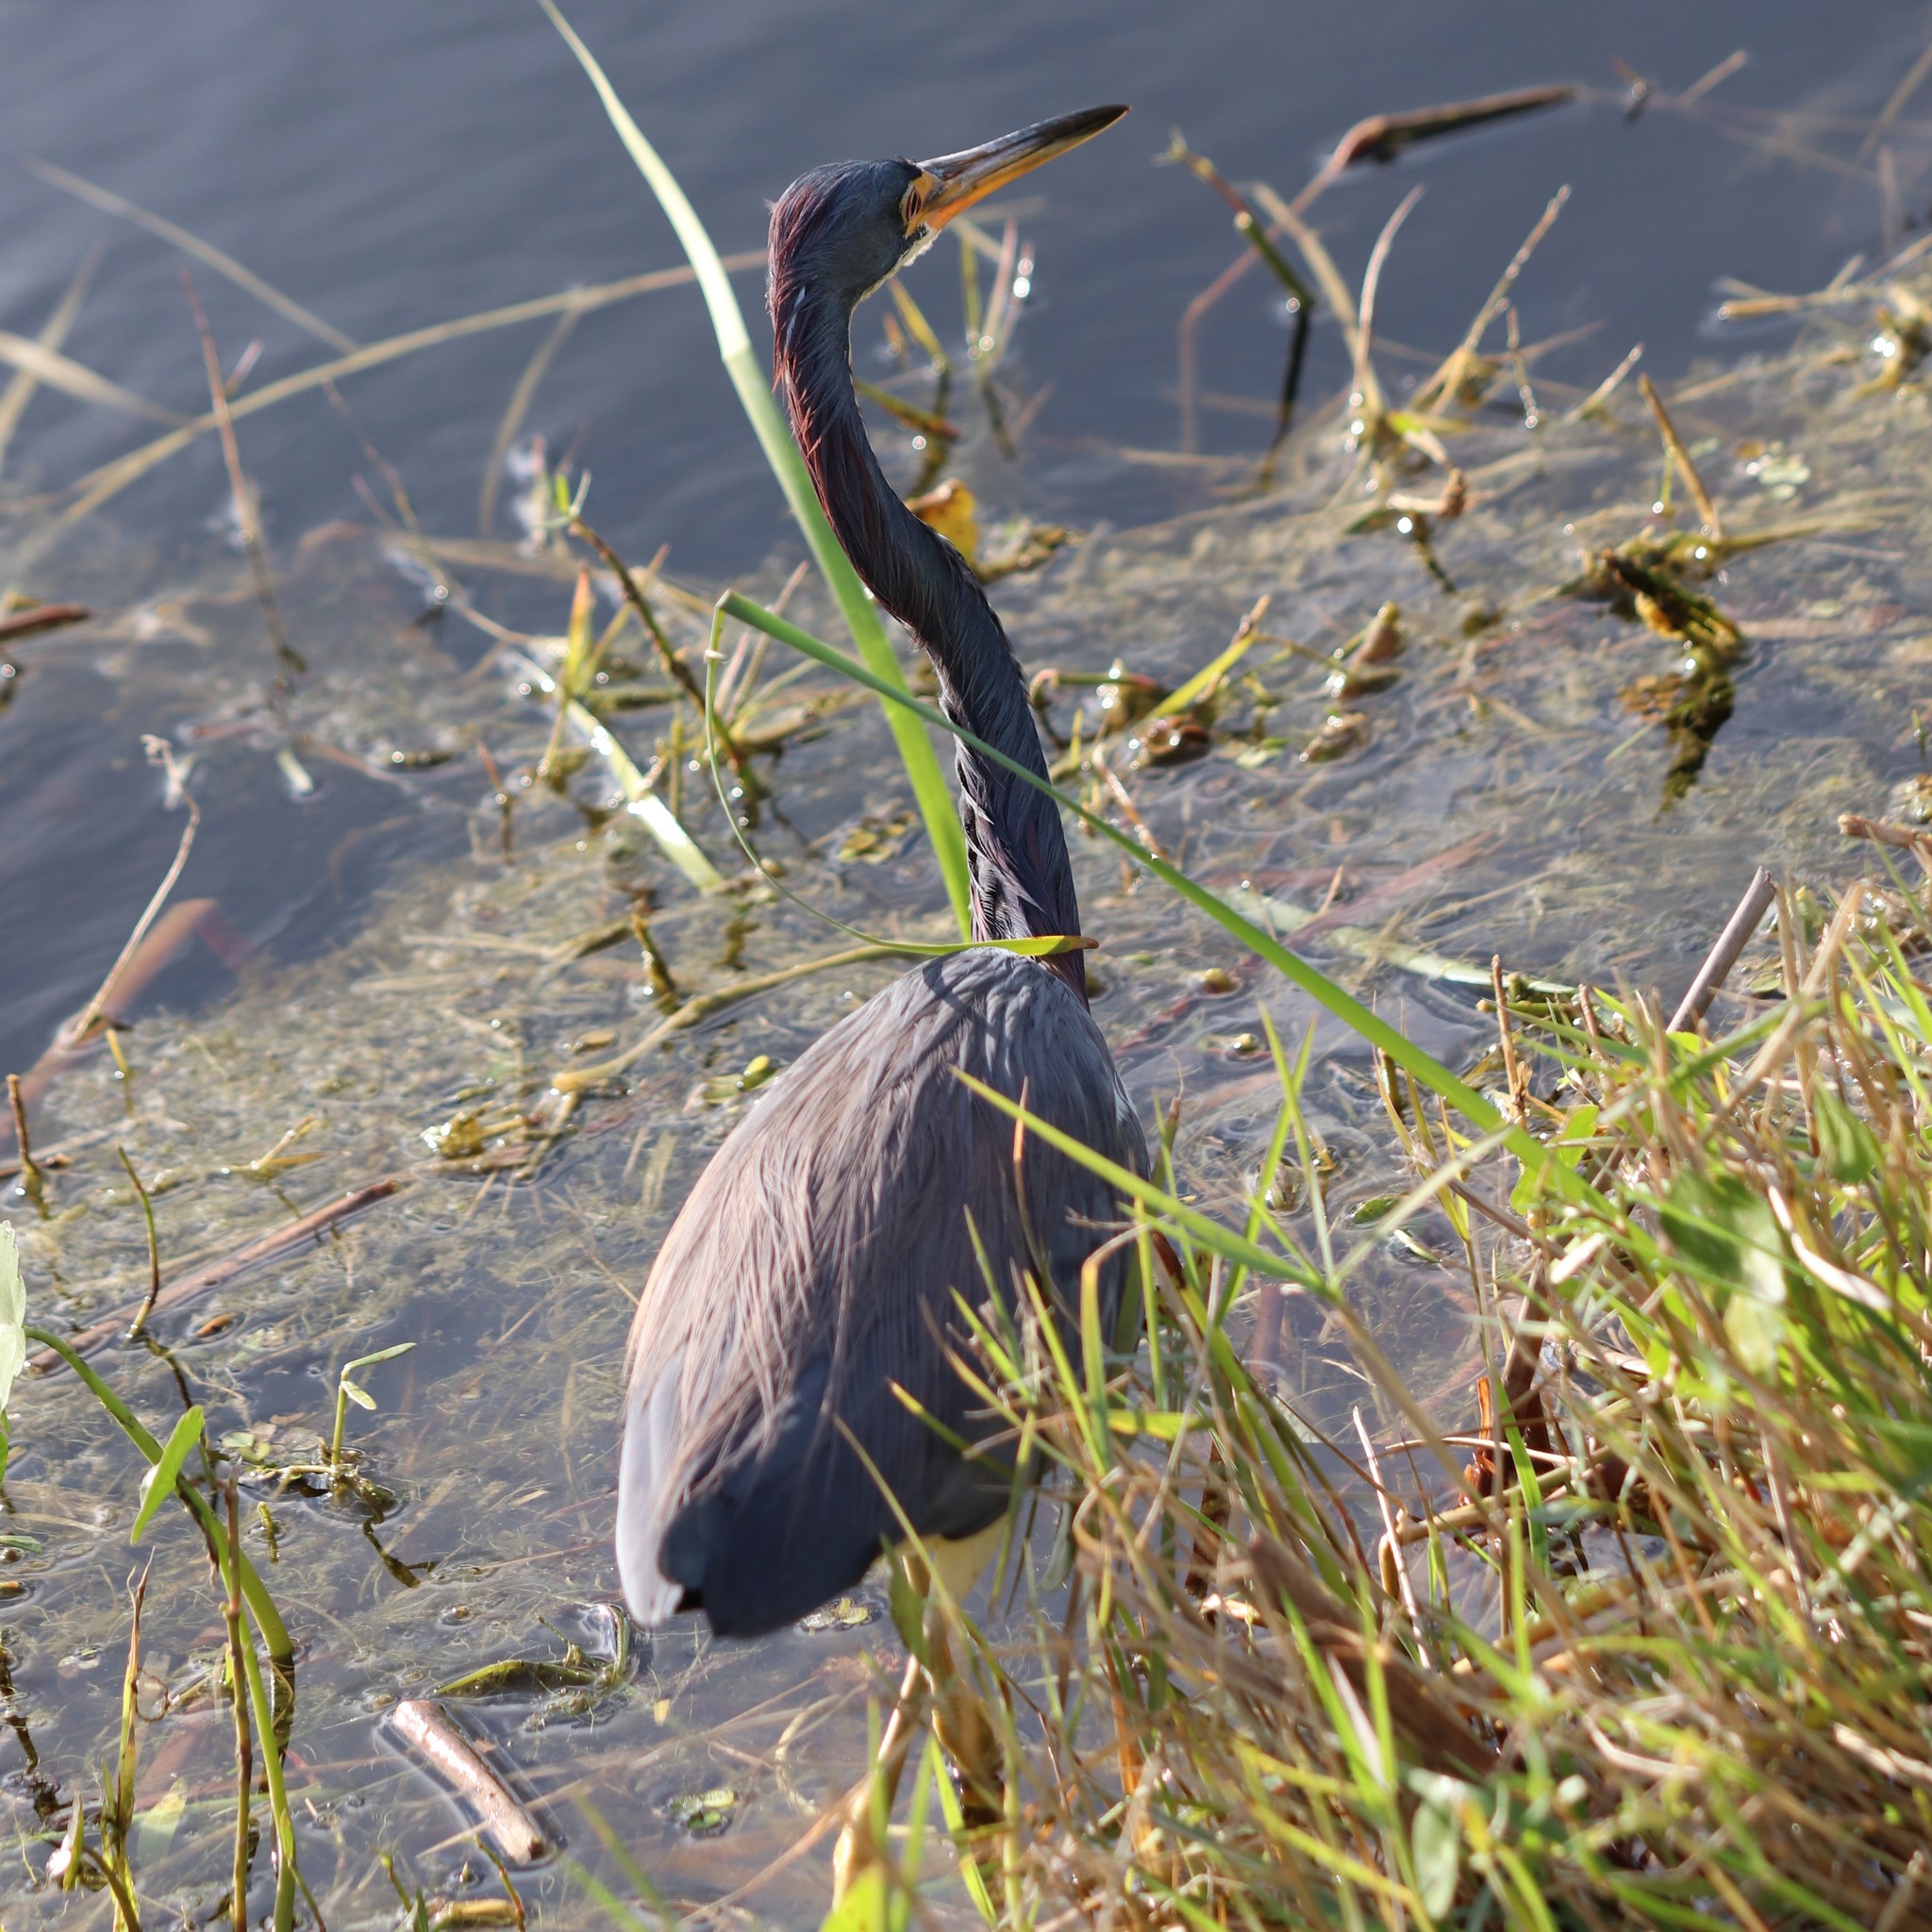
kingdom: Animalia
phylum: Chordata
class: Aves
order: Pelecaniformes
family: Ardeidae
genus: Egretta
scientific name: Egretta tricolor
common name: Tricolored heron
